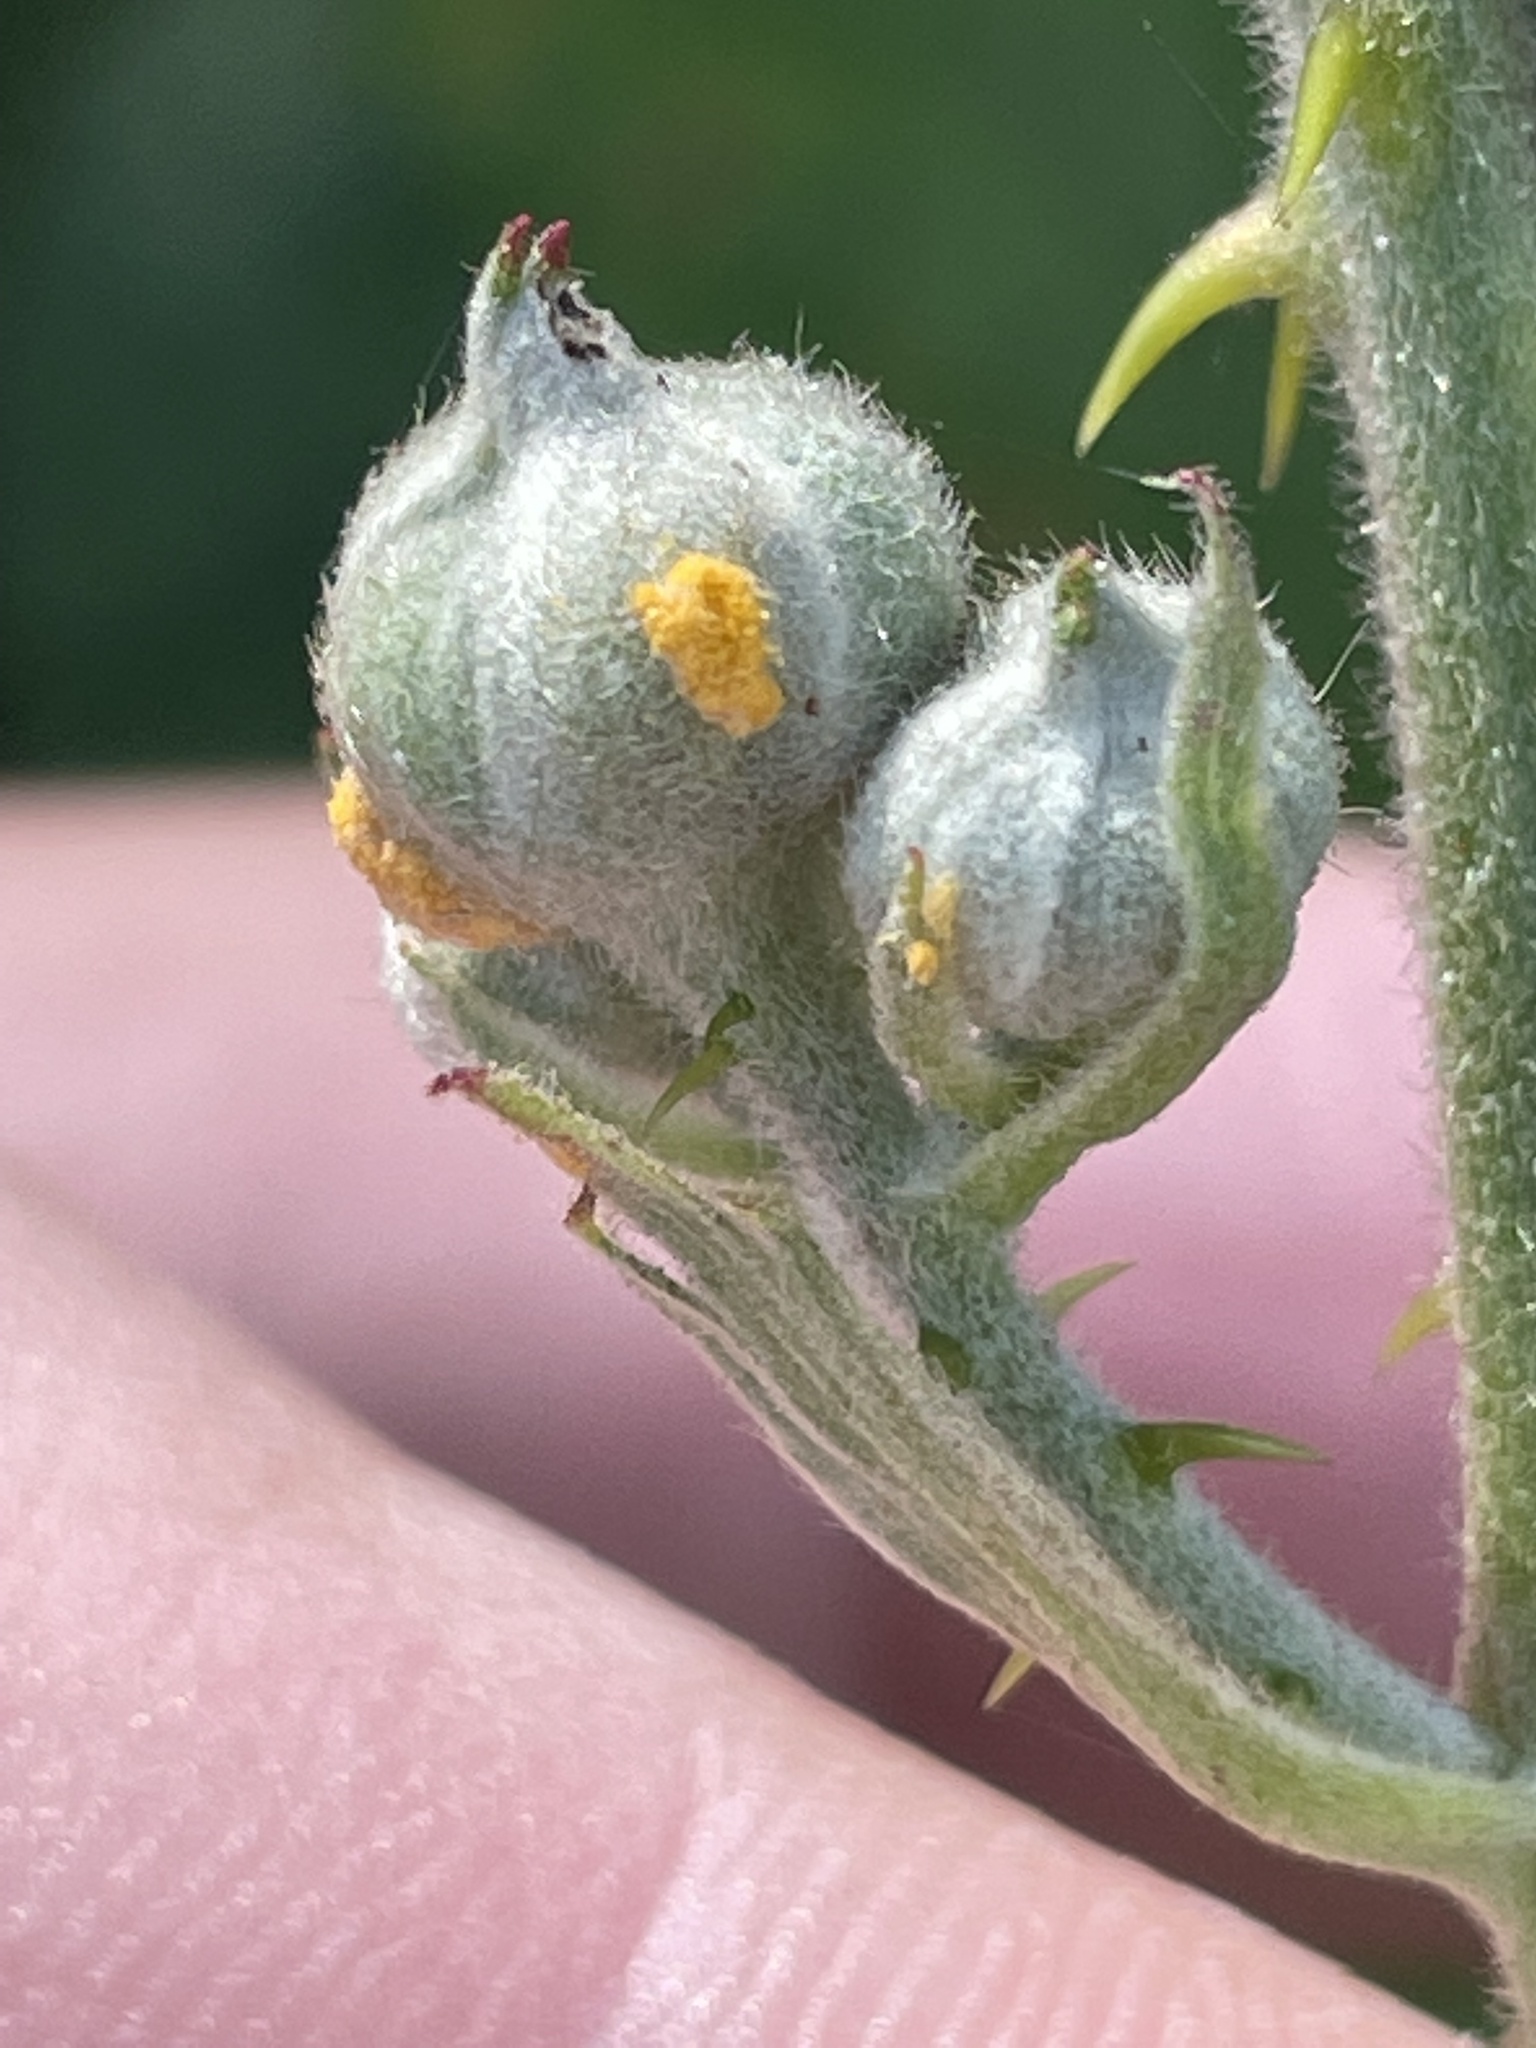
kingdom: Fungi
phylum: Basidiomycota
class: Pucciniomycetes
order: Pucciniales
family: Phragmidiaceae
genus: Phragmidium
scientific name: Phragmidium violaceum
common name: Violet bramble rust
